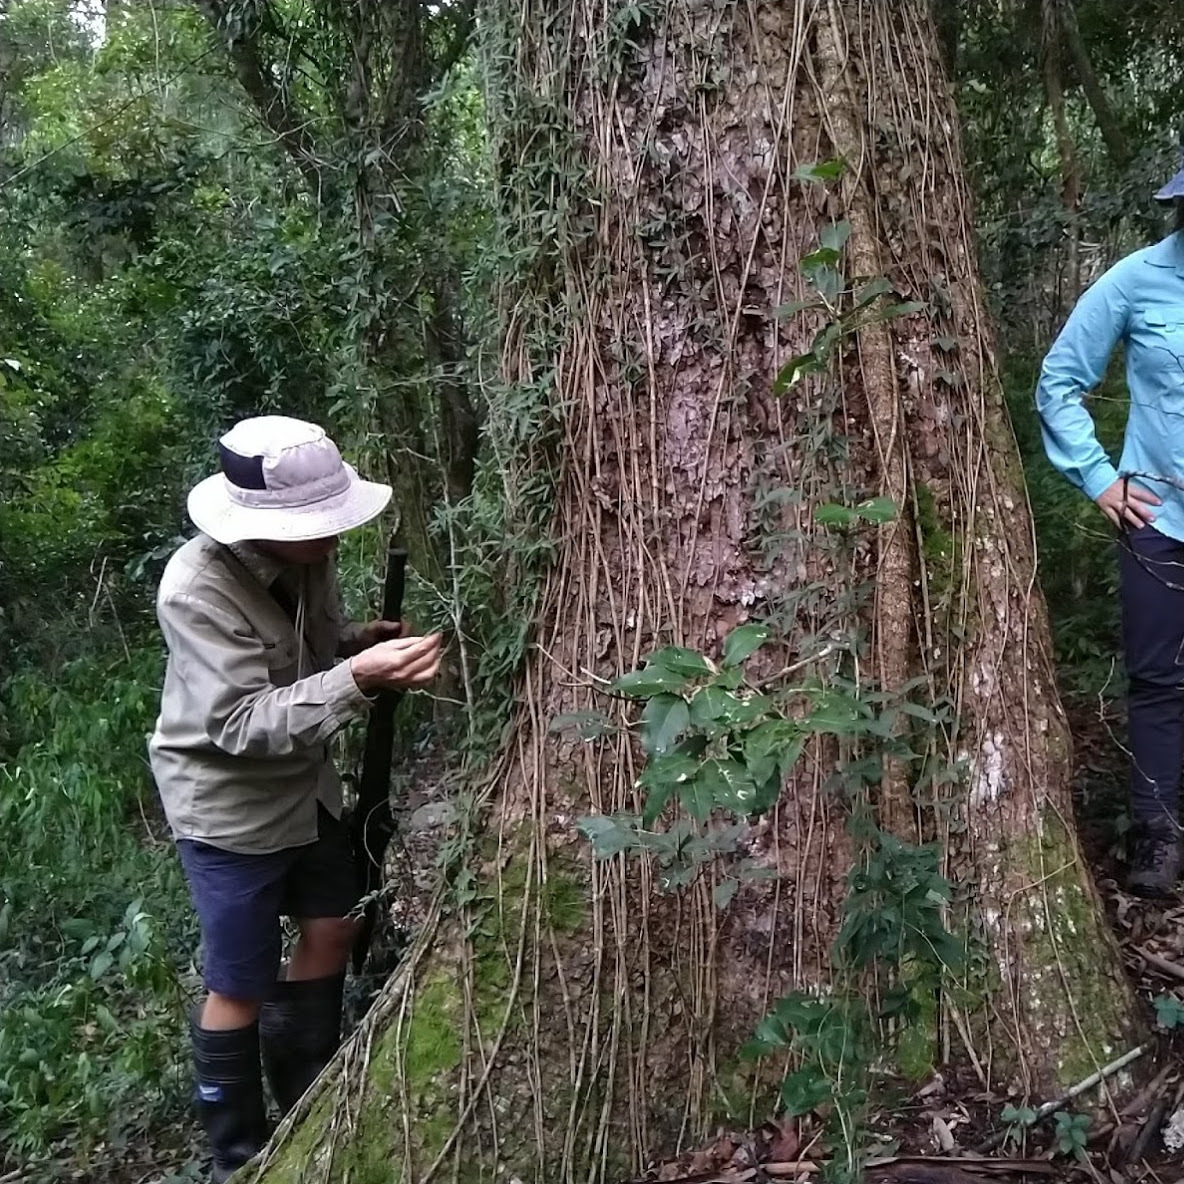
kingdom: Plantae
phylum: Tracheophyta
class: Magnoliopsida
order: Lamiales
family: Bignoniaceae
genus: Dolichandra
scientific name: Dolichandra unguis-cati
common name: Catclaw vine
